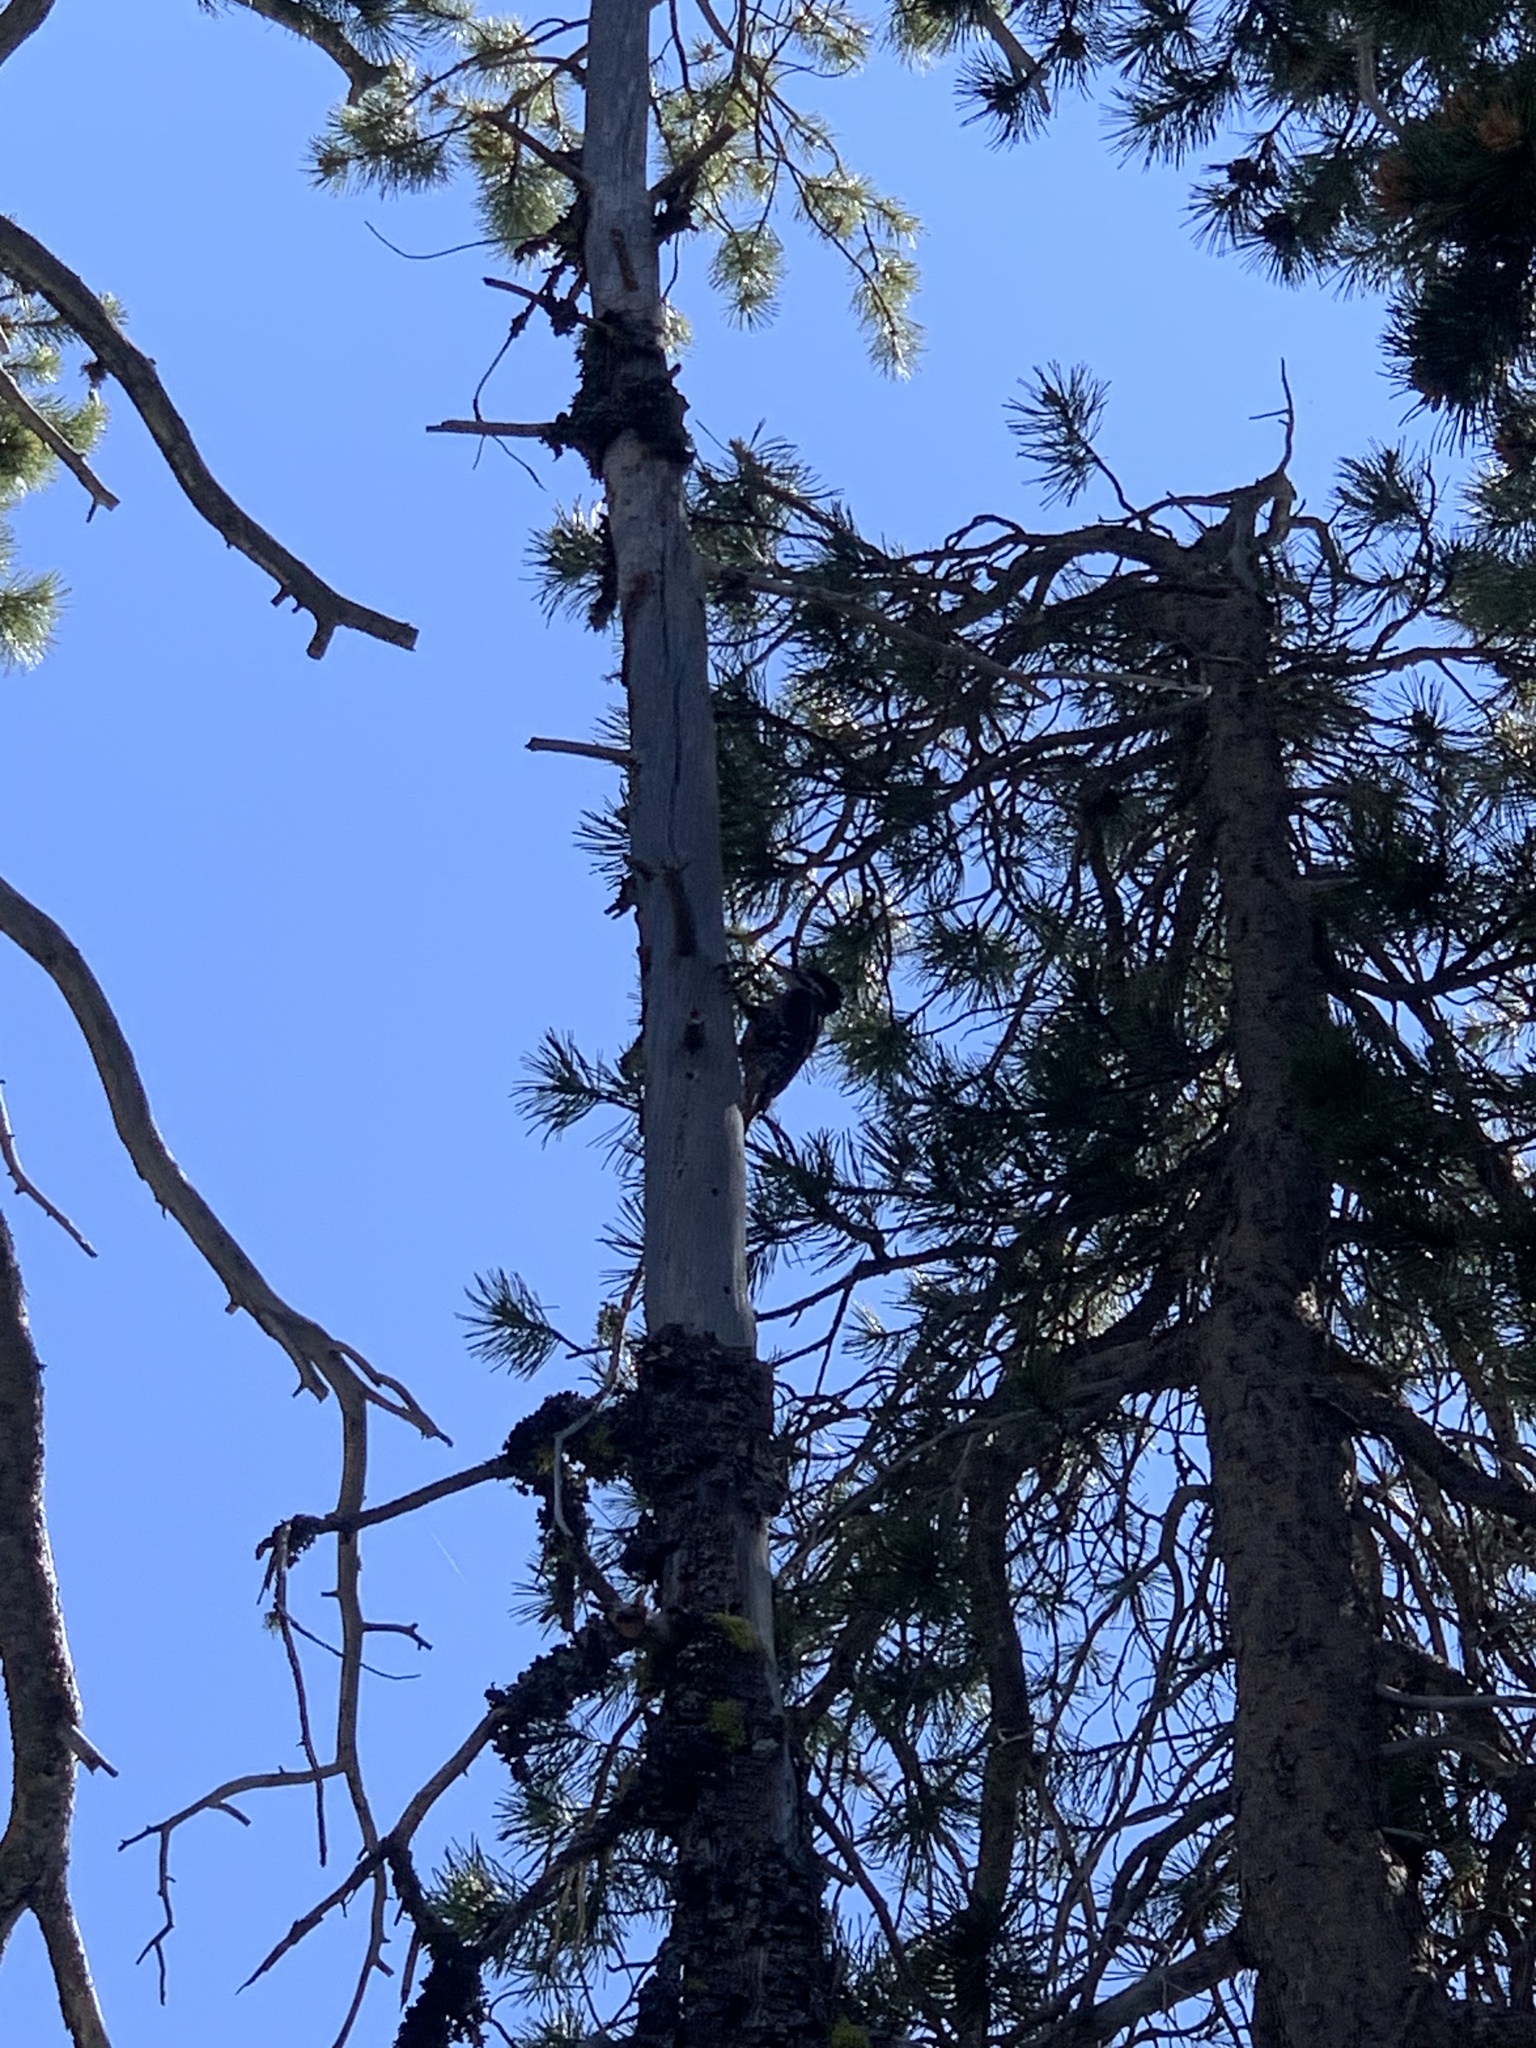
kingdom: Animalia
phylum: Chordata
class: Aves
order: Piciformes
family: Picidae
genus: Picoides
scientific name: Picoides arcticus
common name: Black-backed woodpecker
